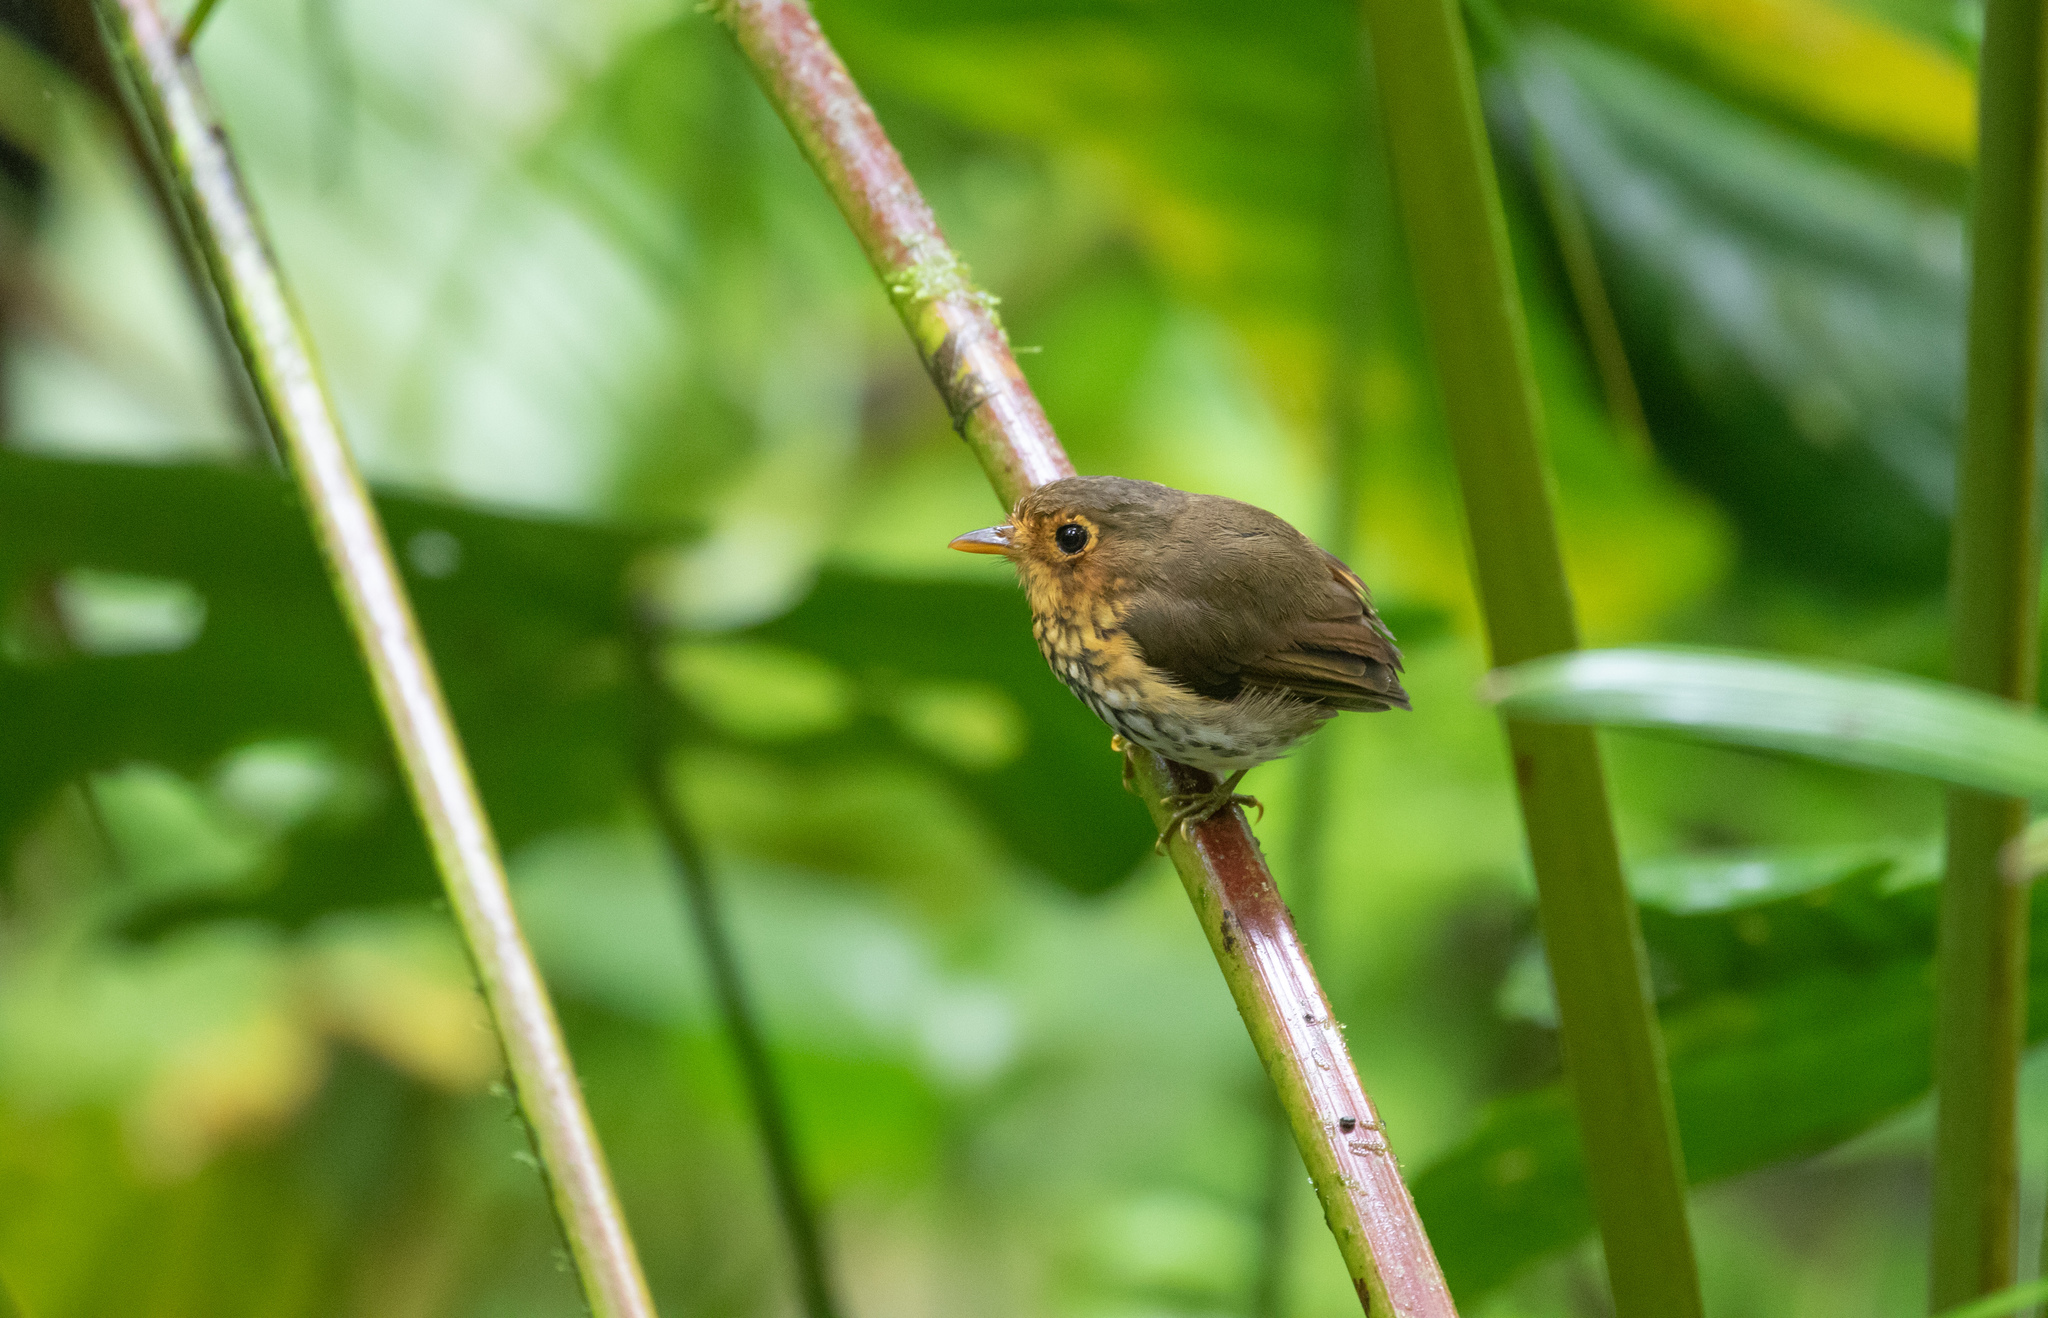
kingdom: Animalia
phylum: Chordata
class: Aves
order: Passeriformes
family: Grallariidae
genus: Grallaricula
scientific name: Grallaricula flavirostris
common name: Ochre-breasted antpitta
